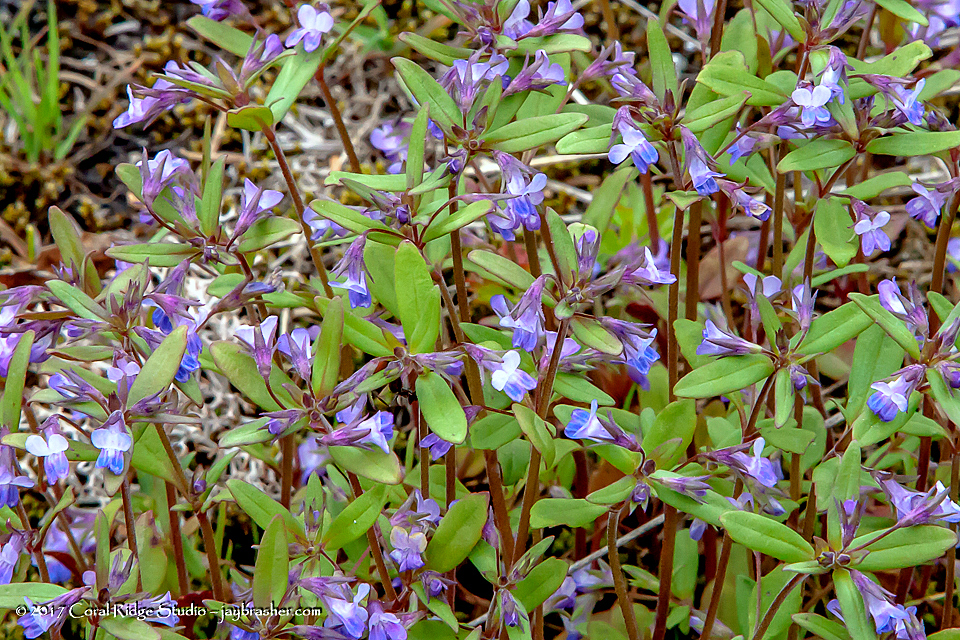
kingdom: Plantae
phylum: Tracheophyta
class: Magnoliopsida
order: Lamiales
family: Plantaginaceae
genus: Collinsia
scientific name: Collinsia parviflora
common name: Blue-lips
